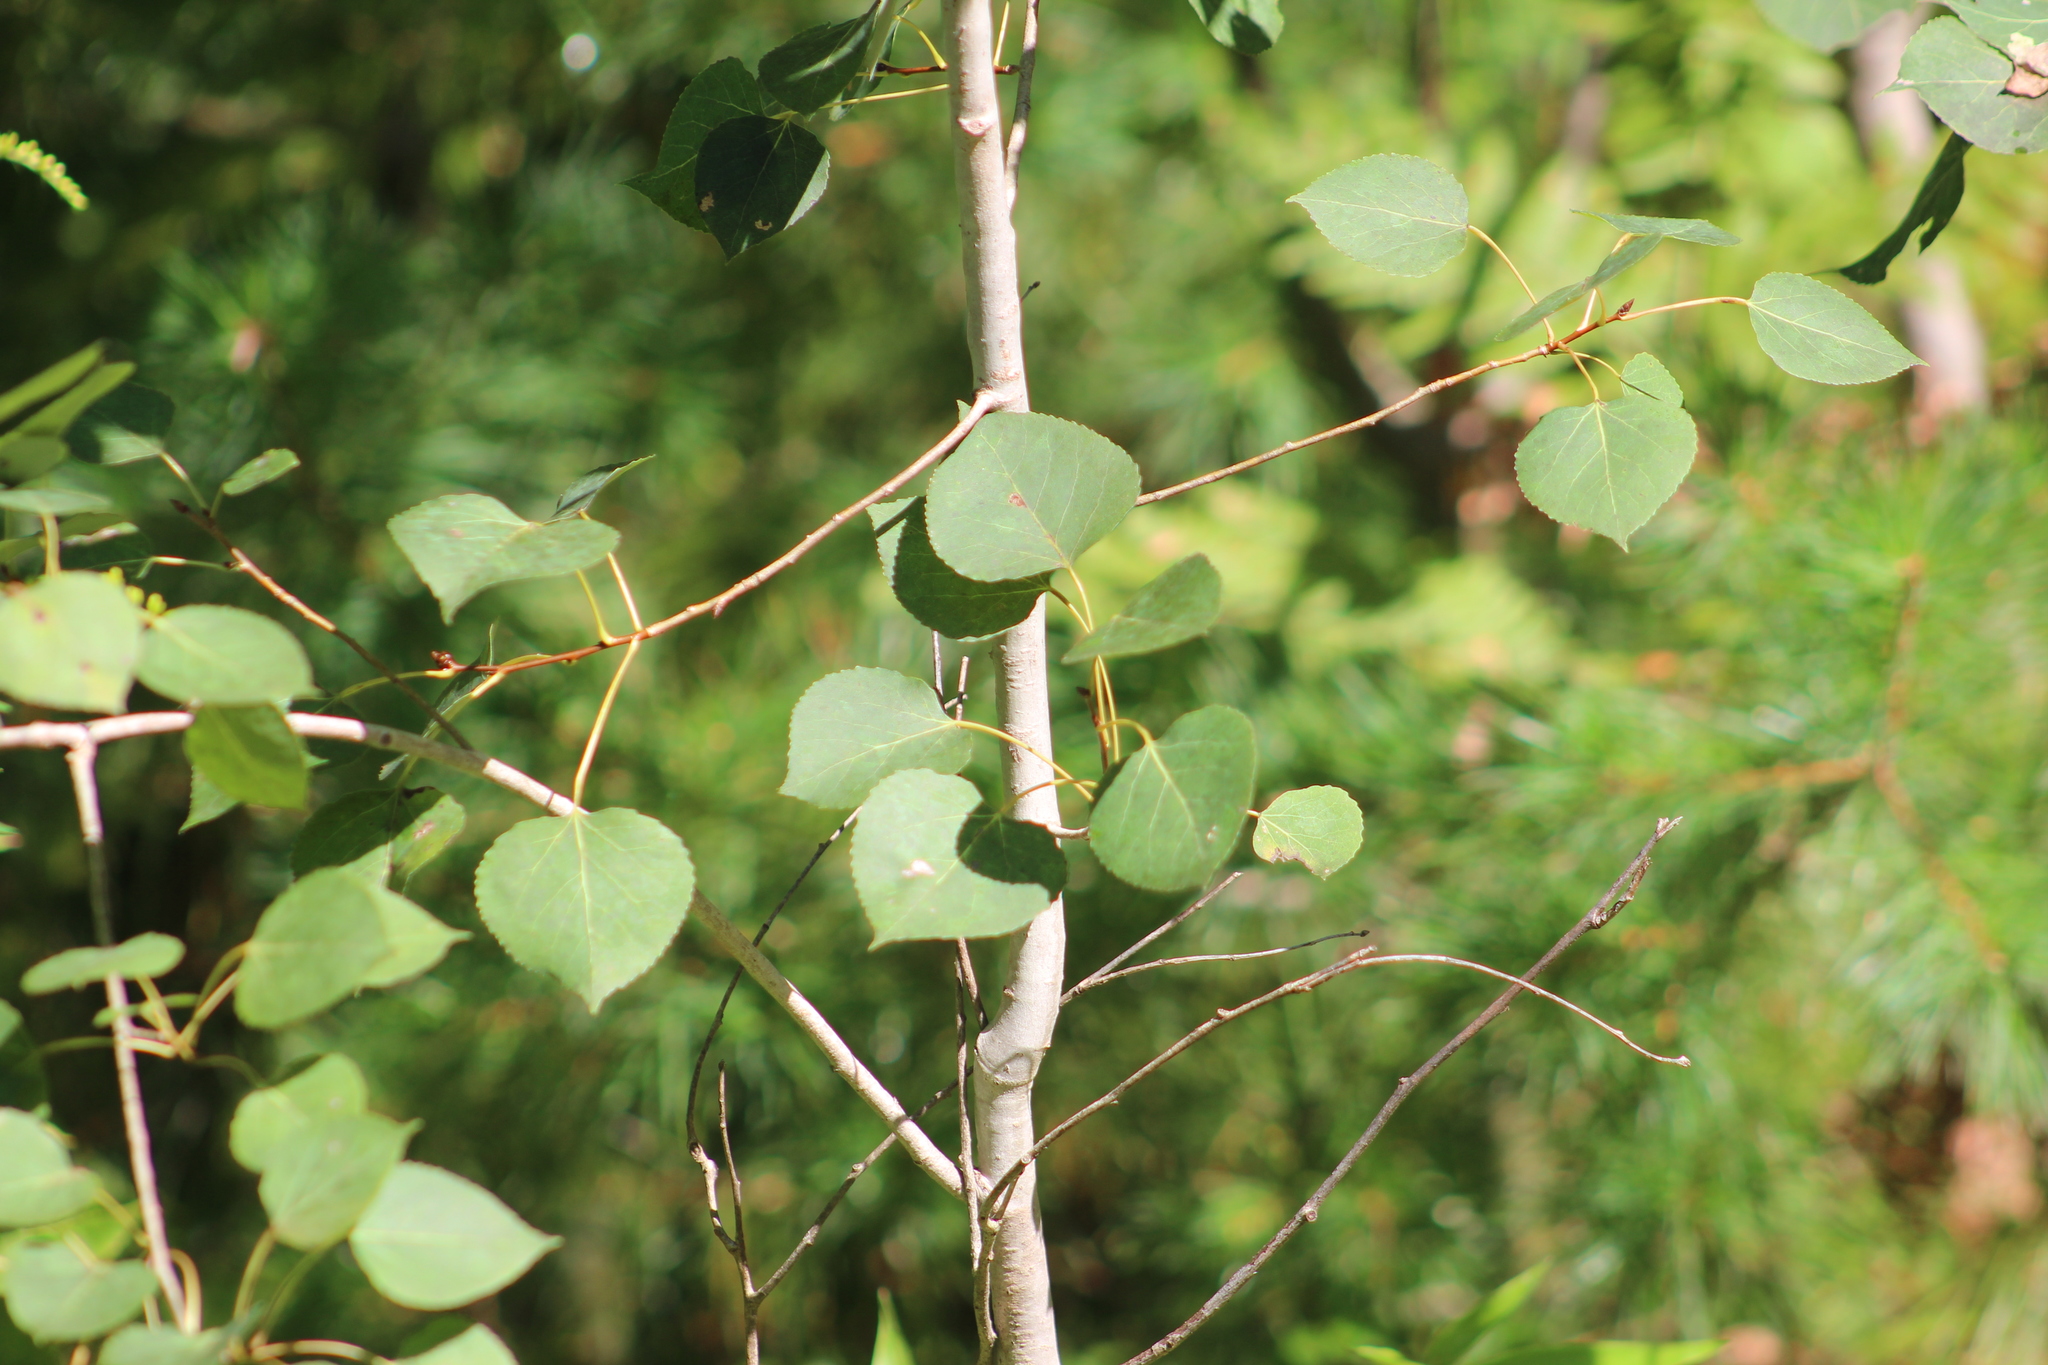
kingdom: Plantae
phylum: Tracheophyta
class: Magnoliopsida
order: Malpighiales
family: Salicaceae
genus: Populus
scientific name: Populus tremuloides
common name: Quaking aspen
